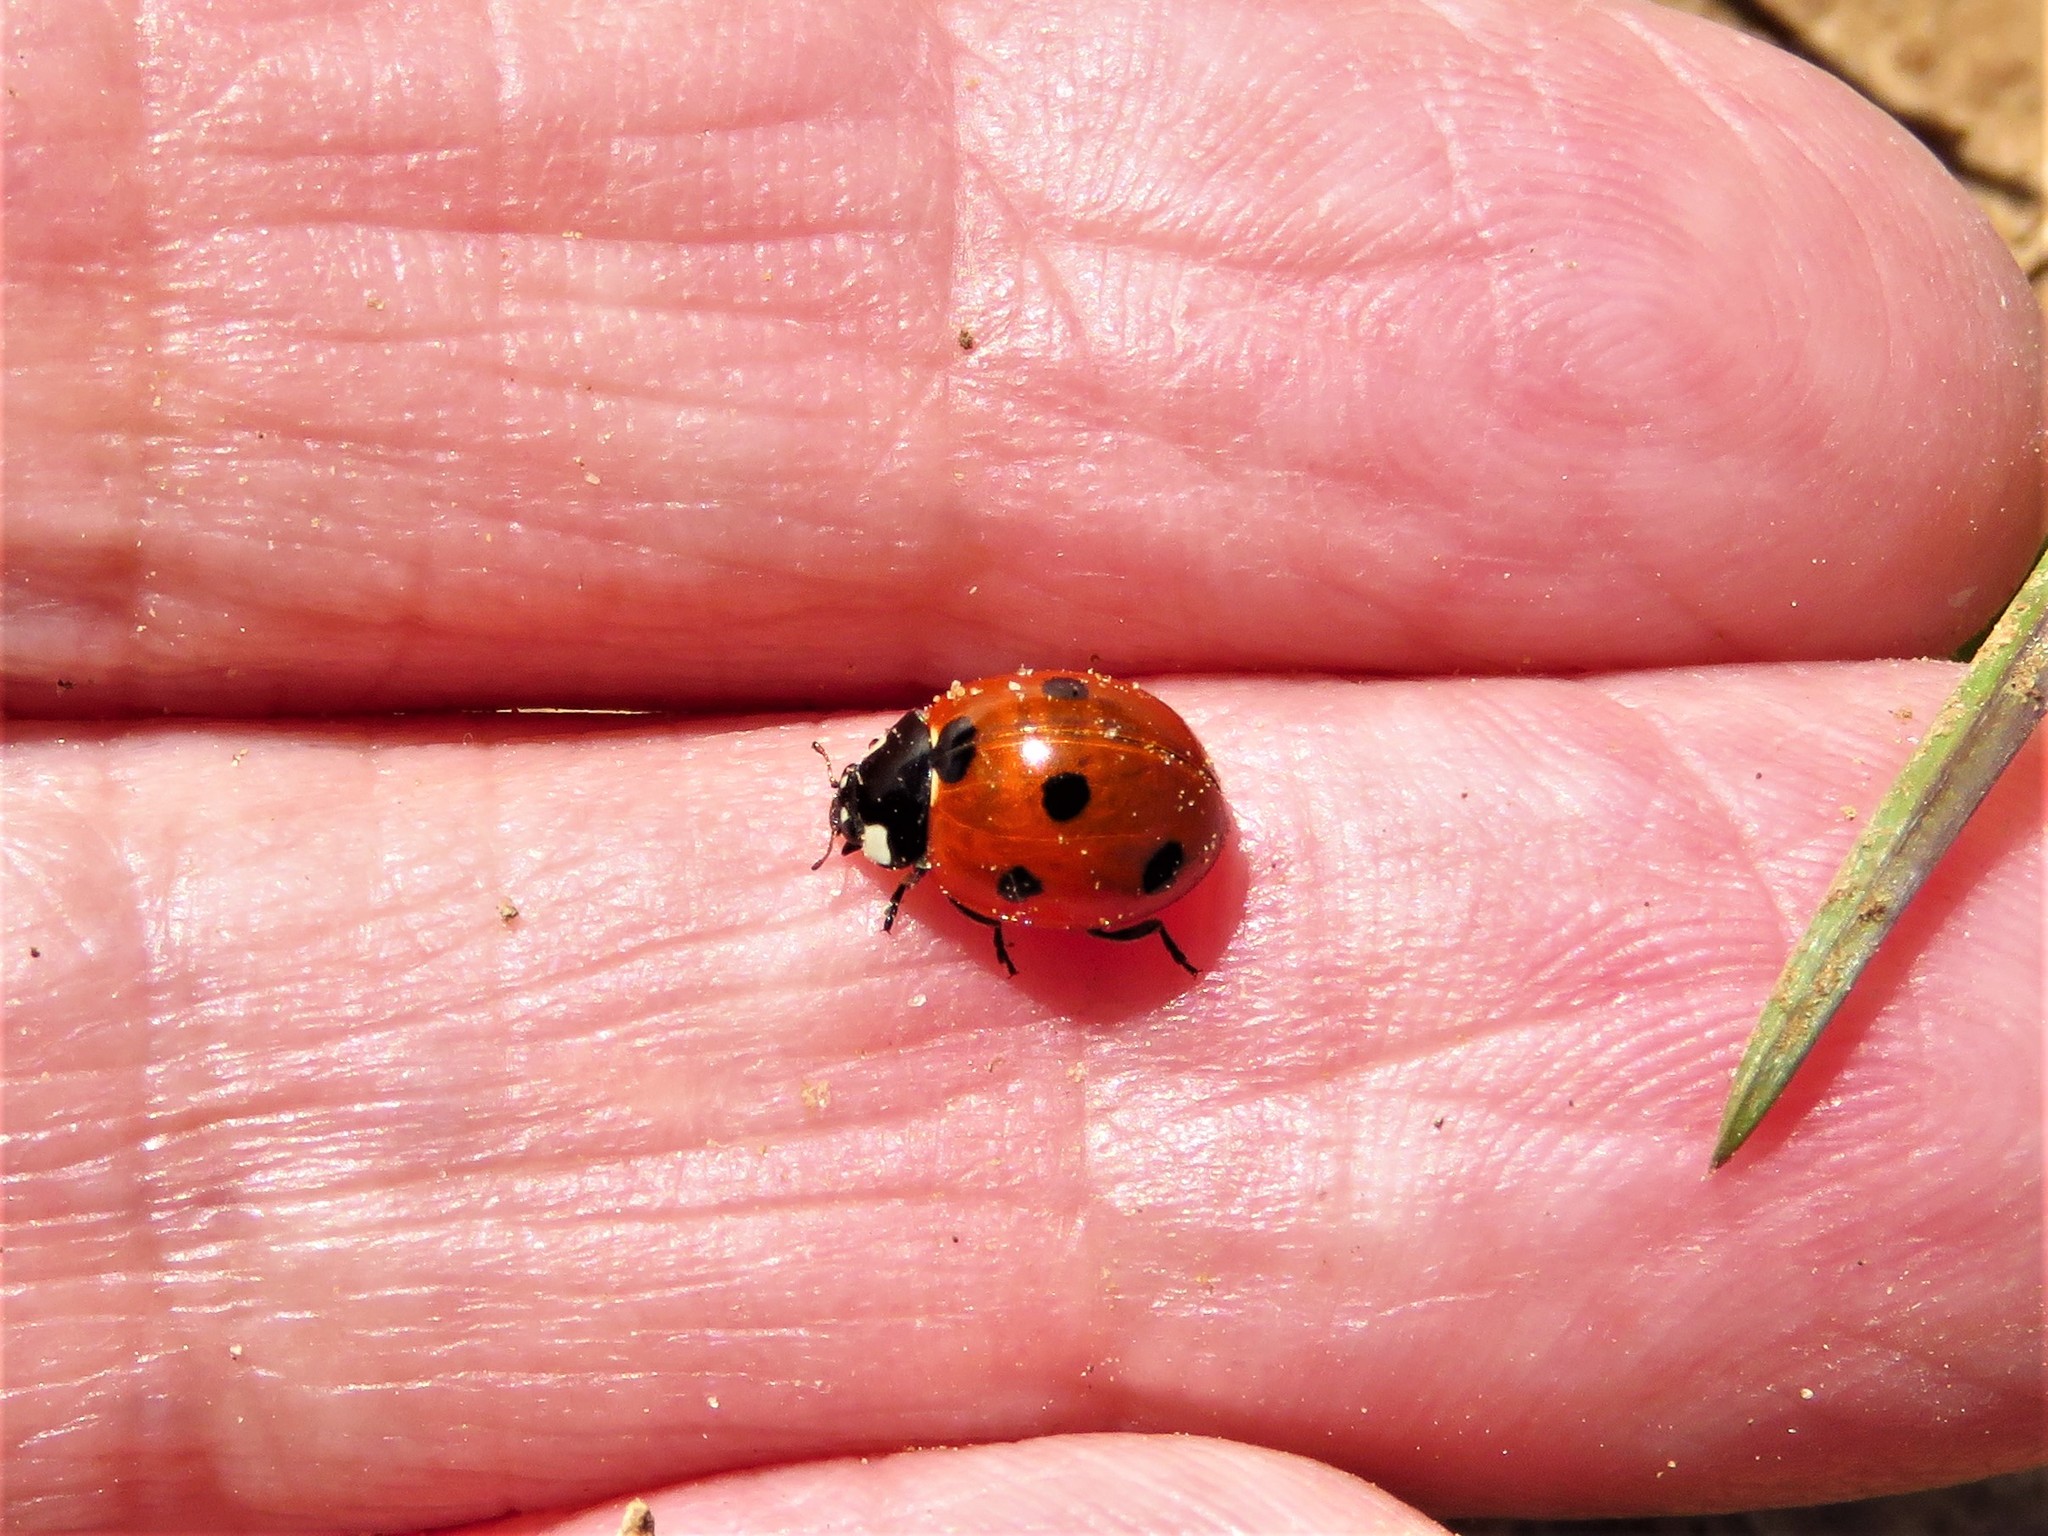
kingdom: Animalia
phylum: Arthropoda
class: Insecta
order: Coleoptera
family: Coccinellidae
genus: Coccinella
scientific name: Coccinella septempunctata
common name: Sevenspotted lady beetle
